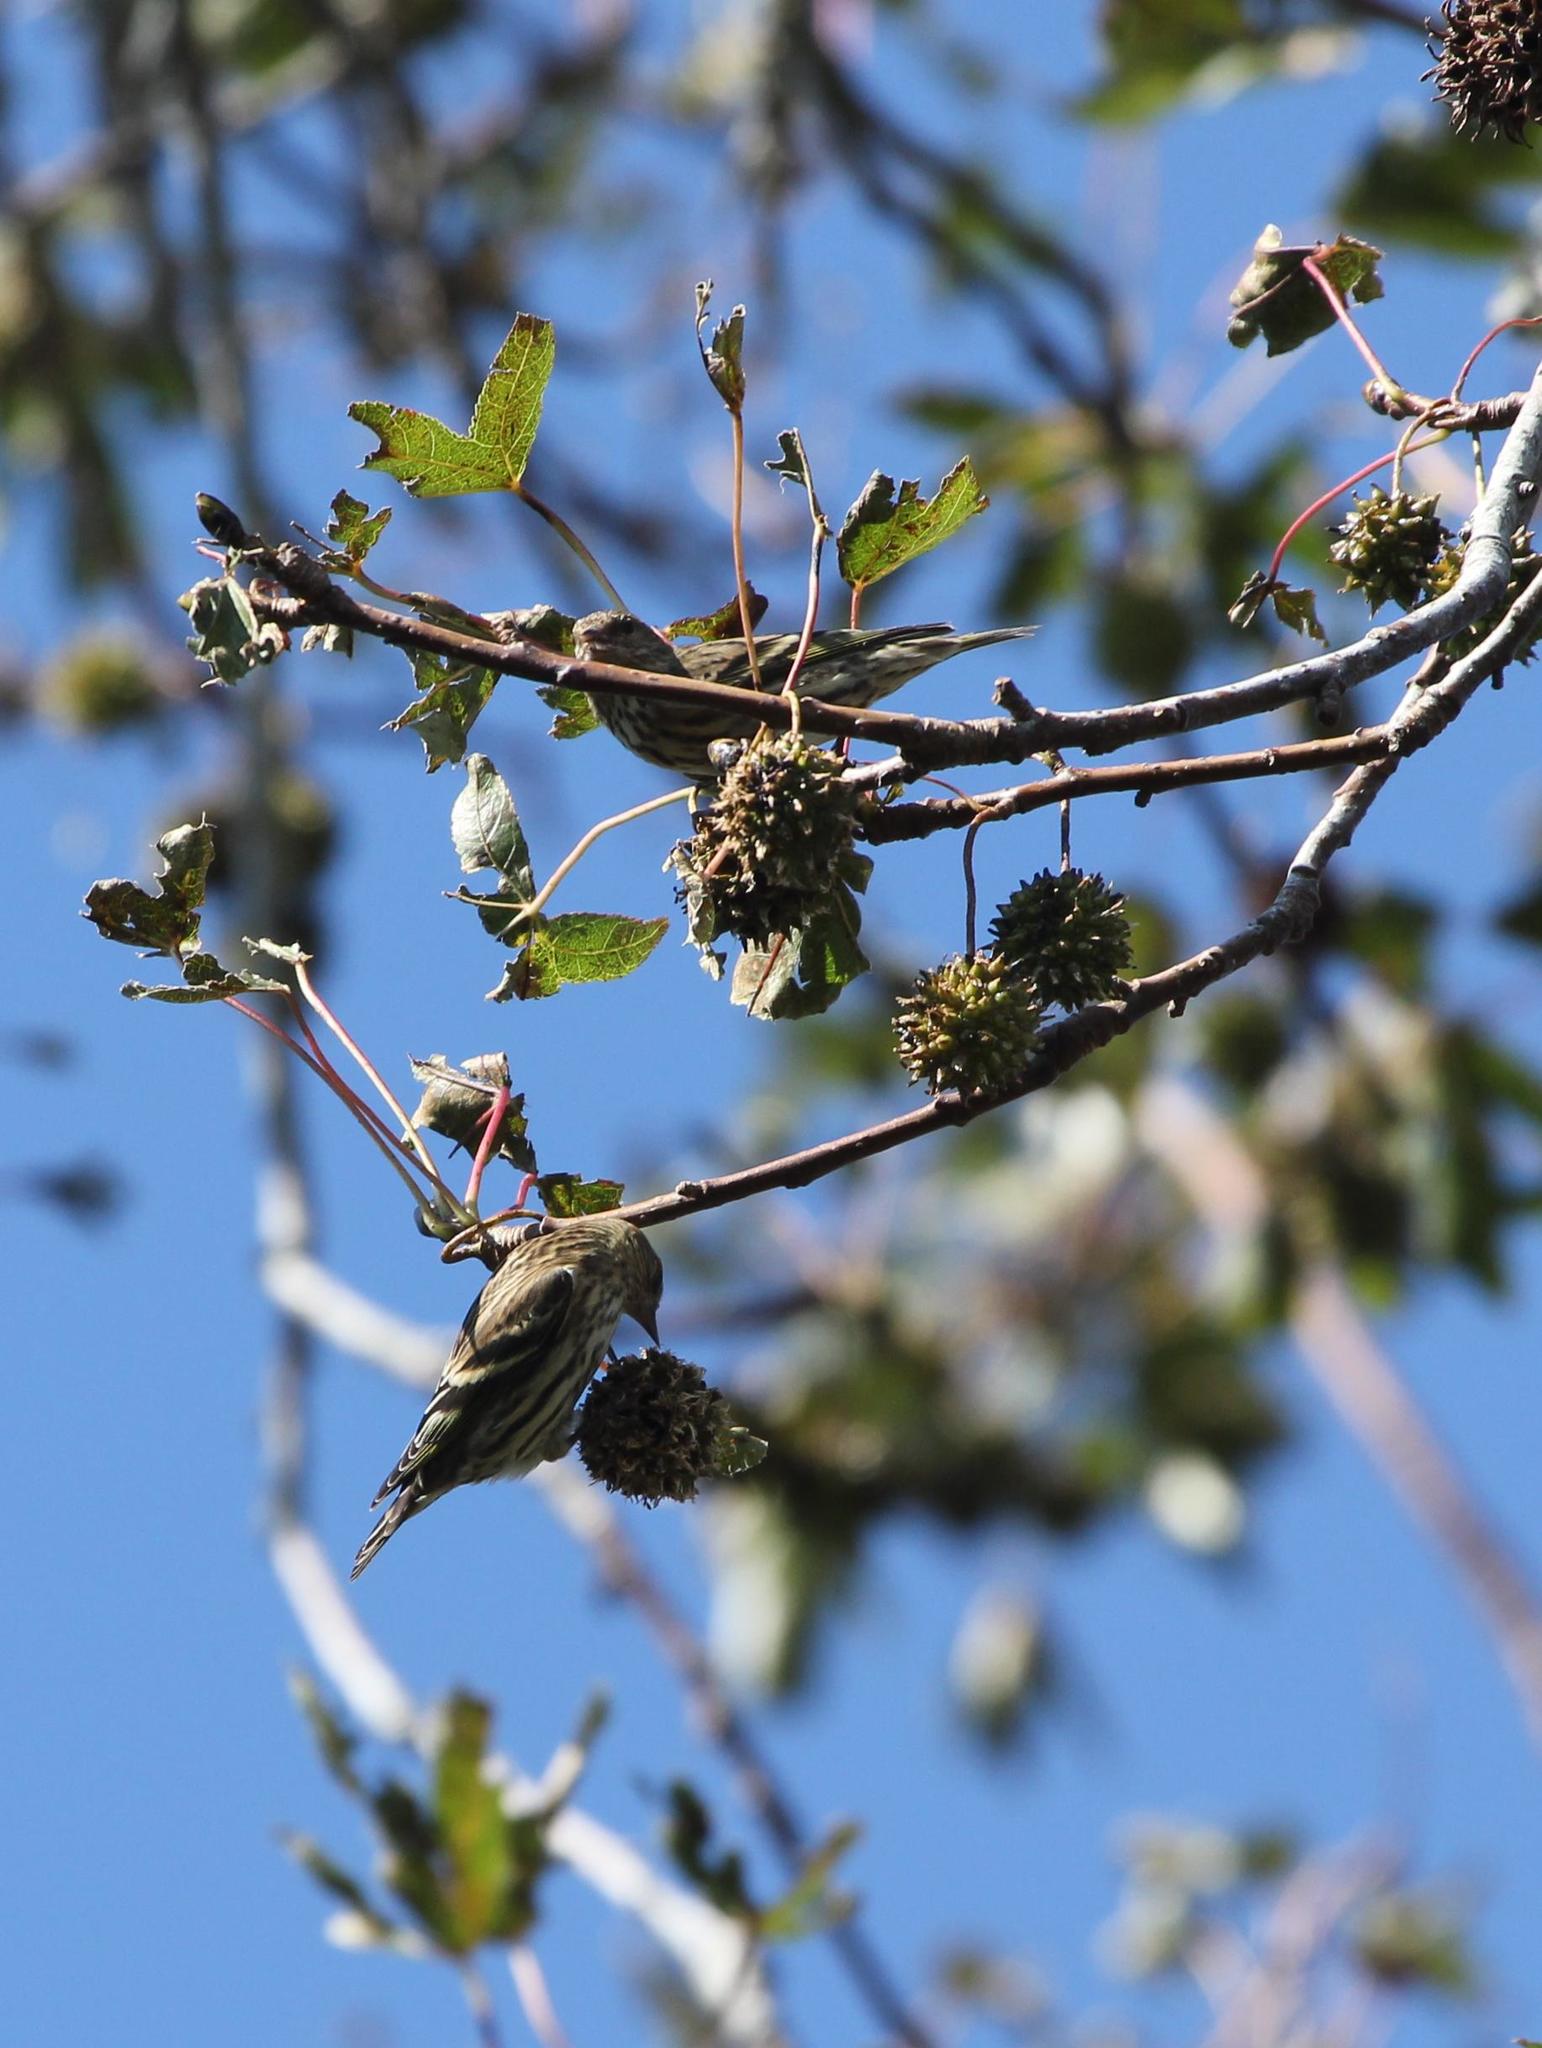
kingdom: Animalia
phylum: Chordata
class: Aves
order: Passeriformes
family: Fringillidae
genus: Spinus
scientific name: Spinus pinus
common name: Pine siskin
